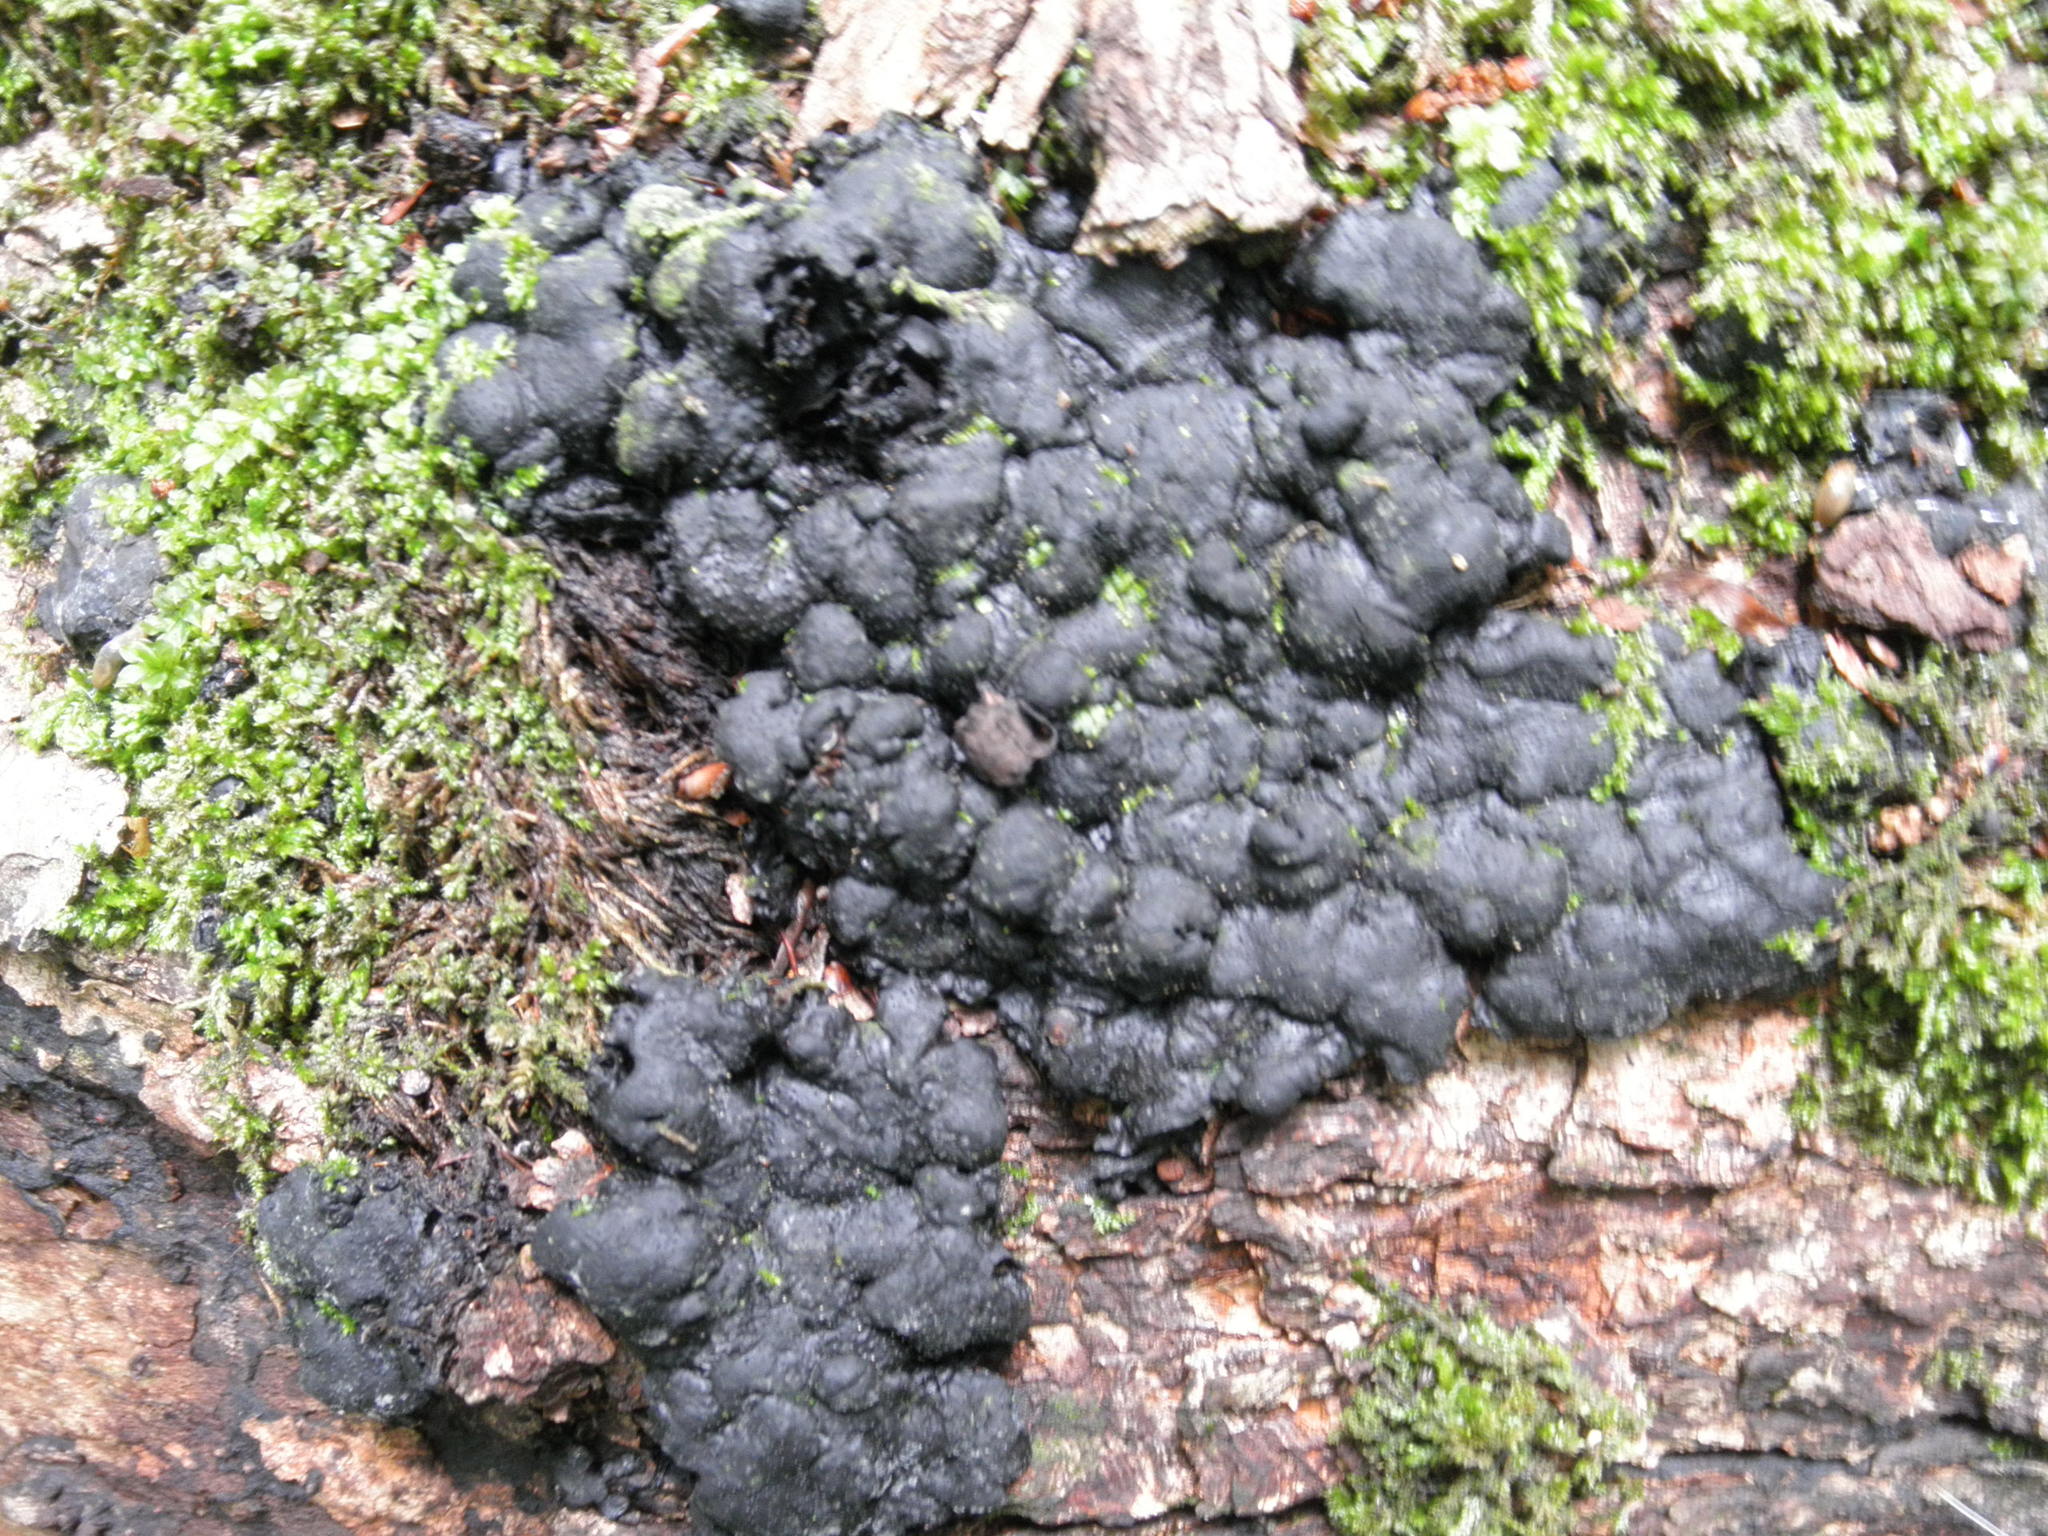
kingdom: Fungi
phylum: Ascomycota
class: Sordariomycetes
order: Xylariales
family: Xylariaceae
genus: Kretzschmaria
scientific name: Kretzschmaria deusta
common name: Brittle cinder
